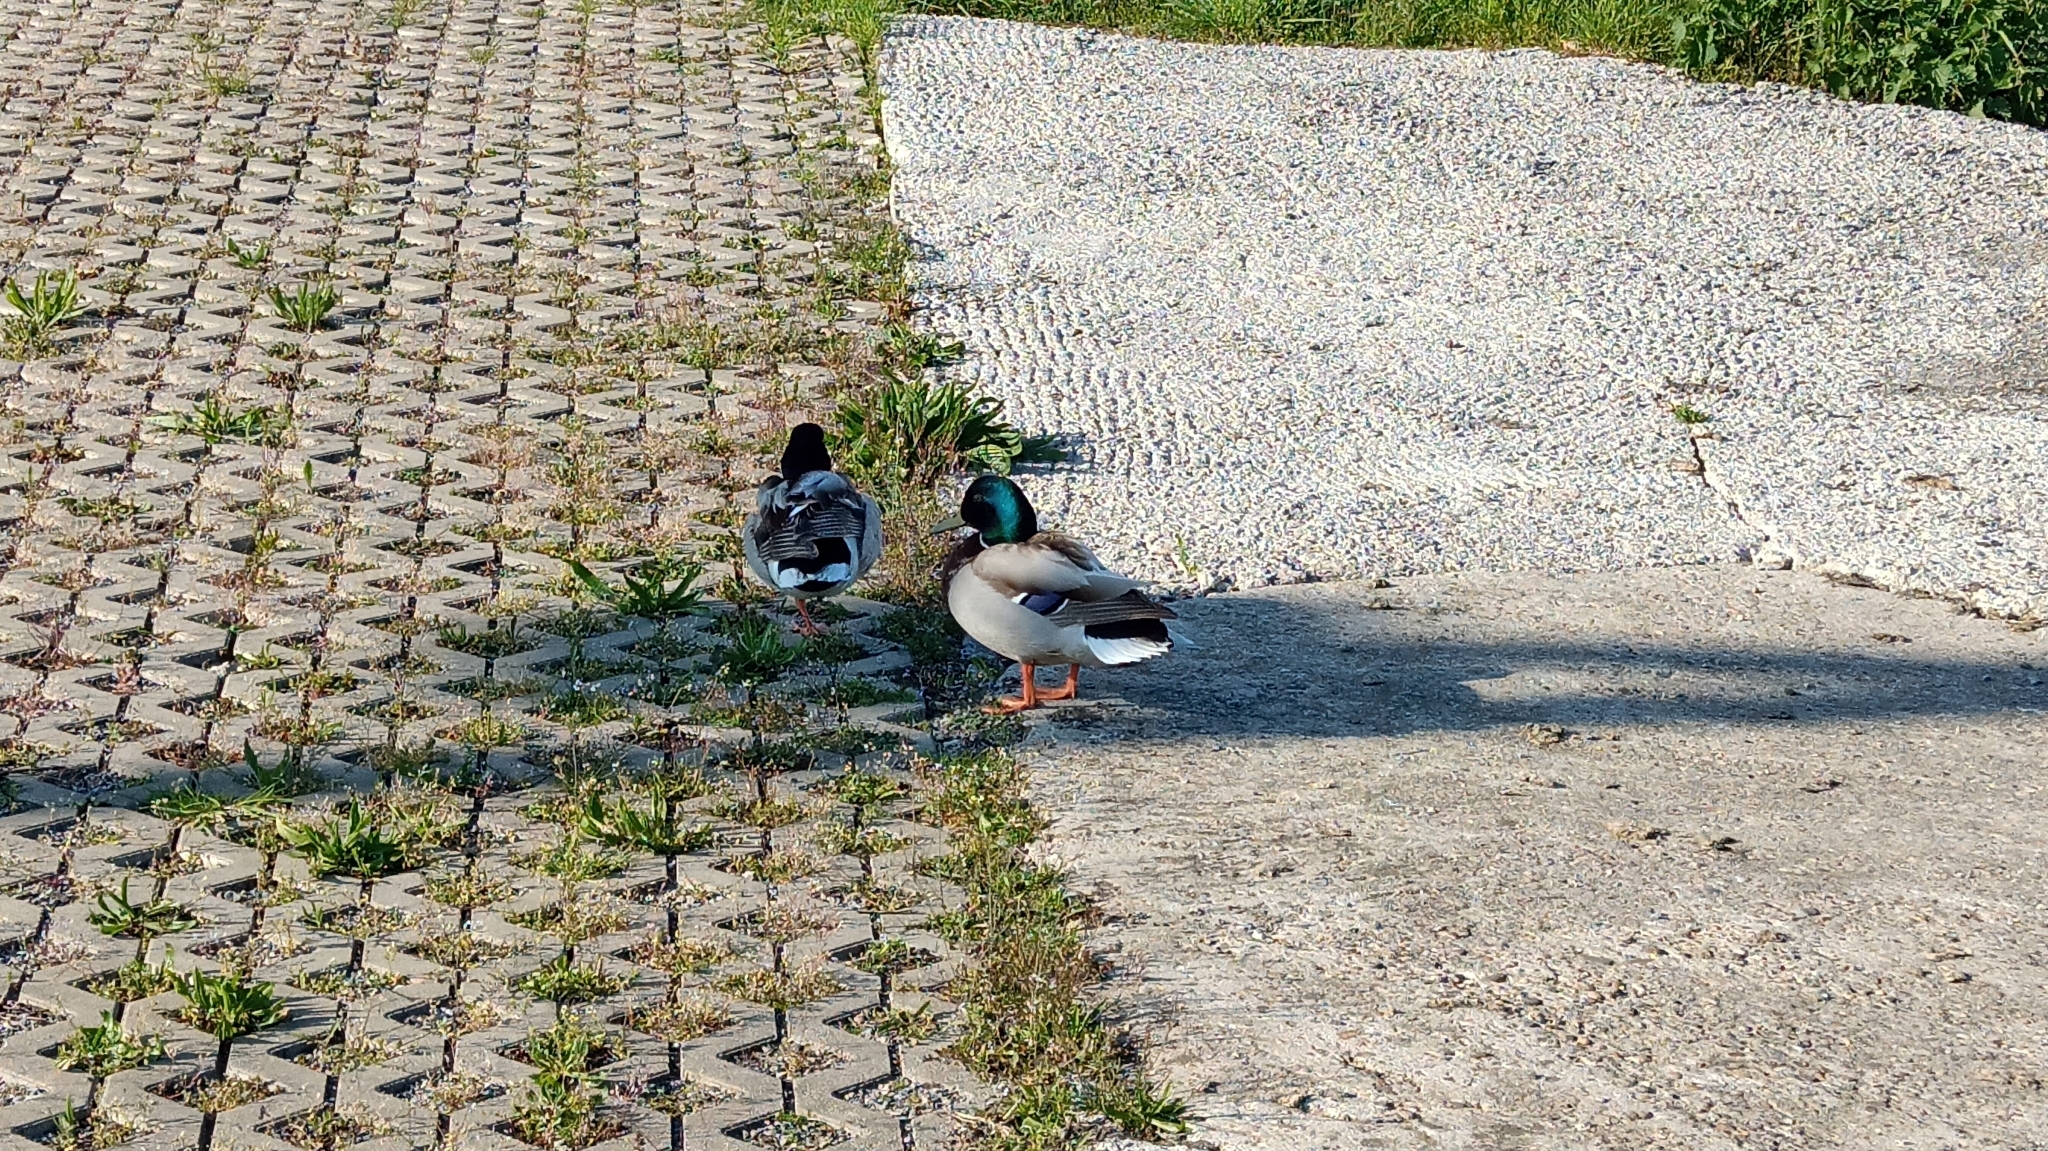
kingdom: Animalia
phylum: Chordata
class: Aves
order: Anseriformes
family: Anatidae
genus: Anas
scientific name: Anas platyrhynchos
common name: Mallard
